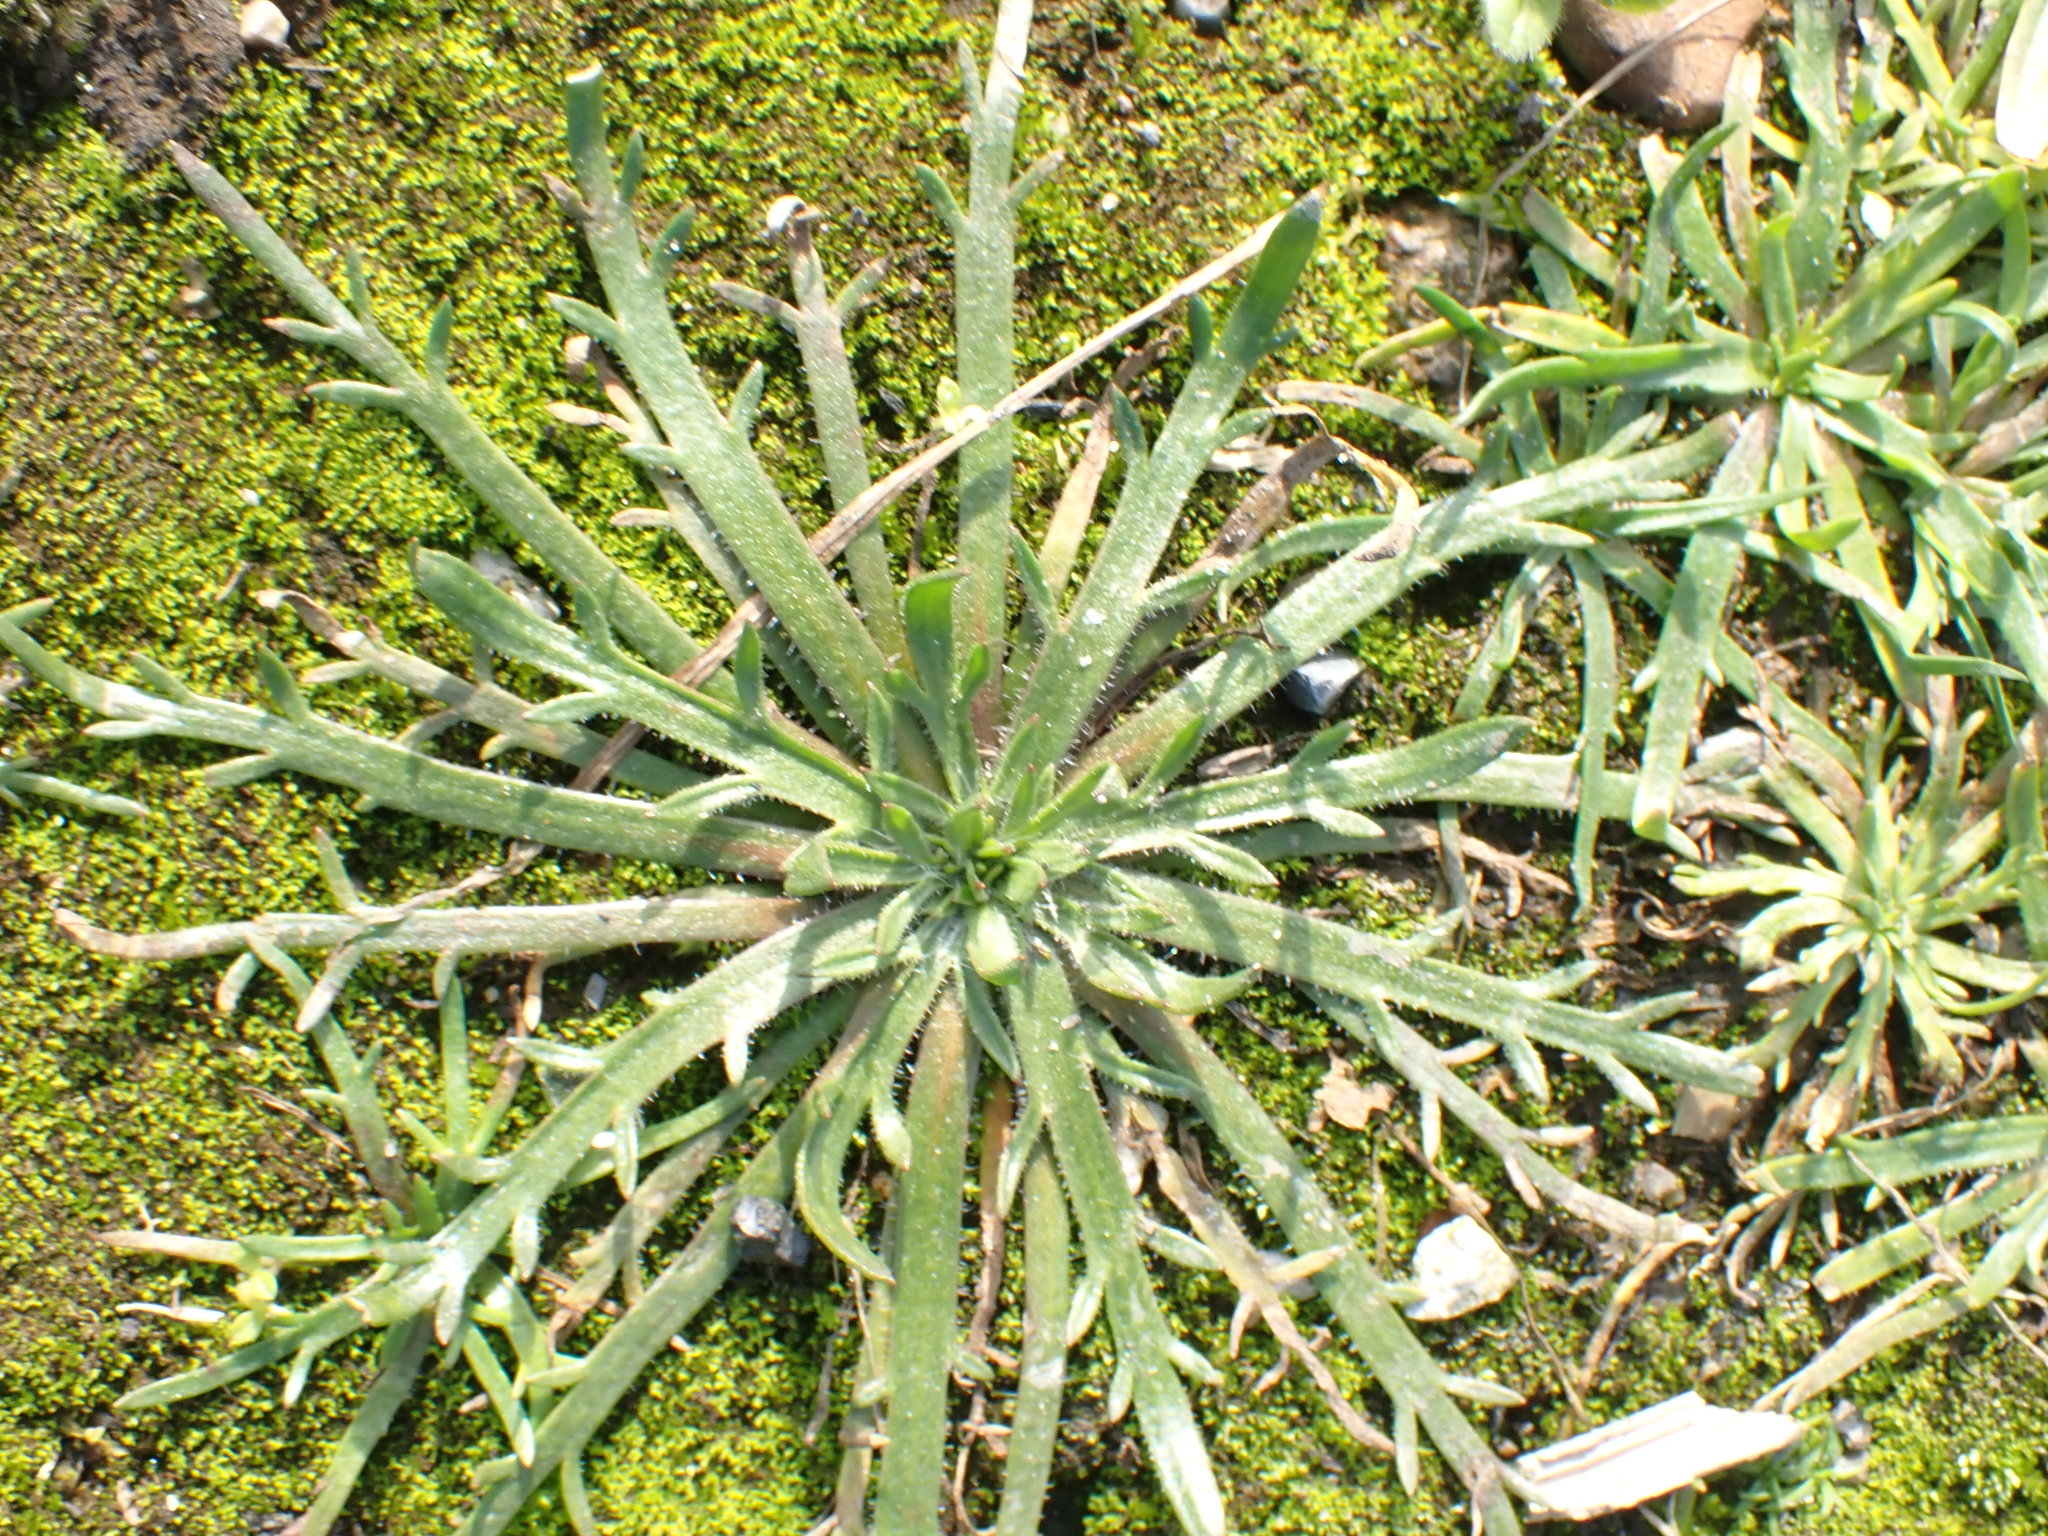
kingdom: Plantae
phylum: Tracheophyta
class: Magnoliopsida
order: Lamiales
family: Plantaginaceae
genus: Plantago
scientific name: Plantago coronopus
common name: Buck's-horn plantain
